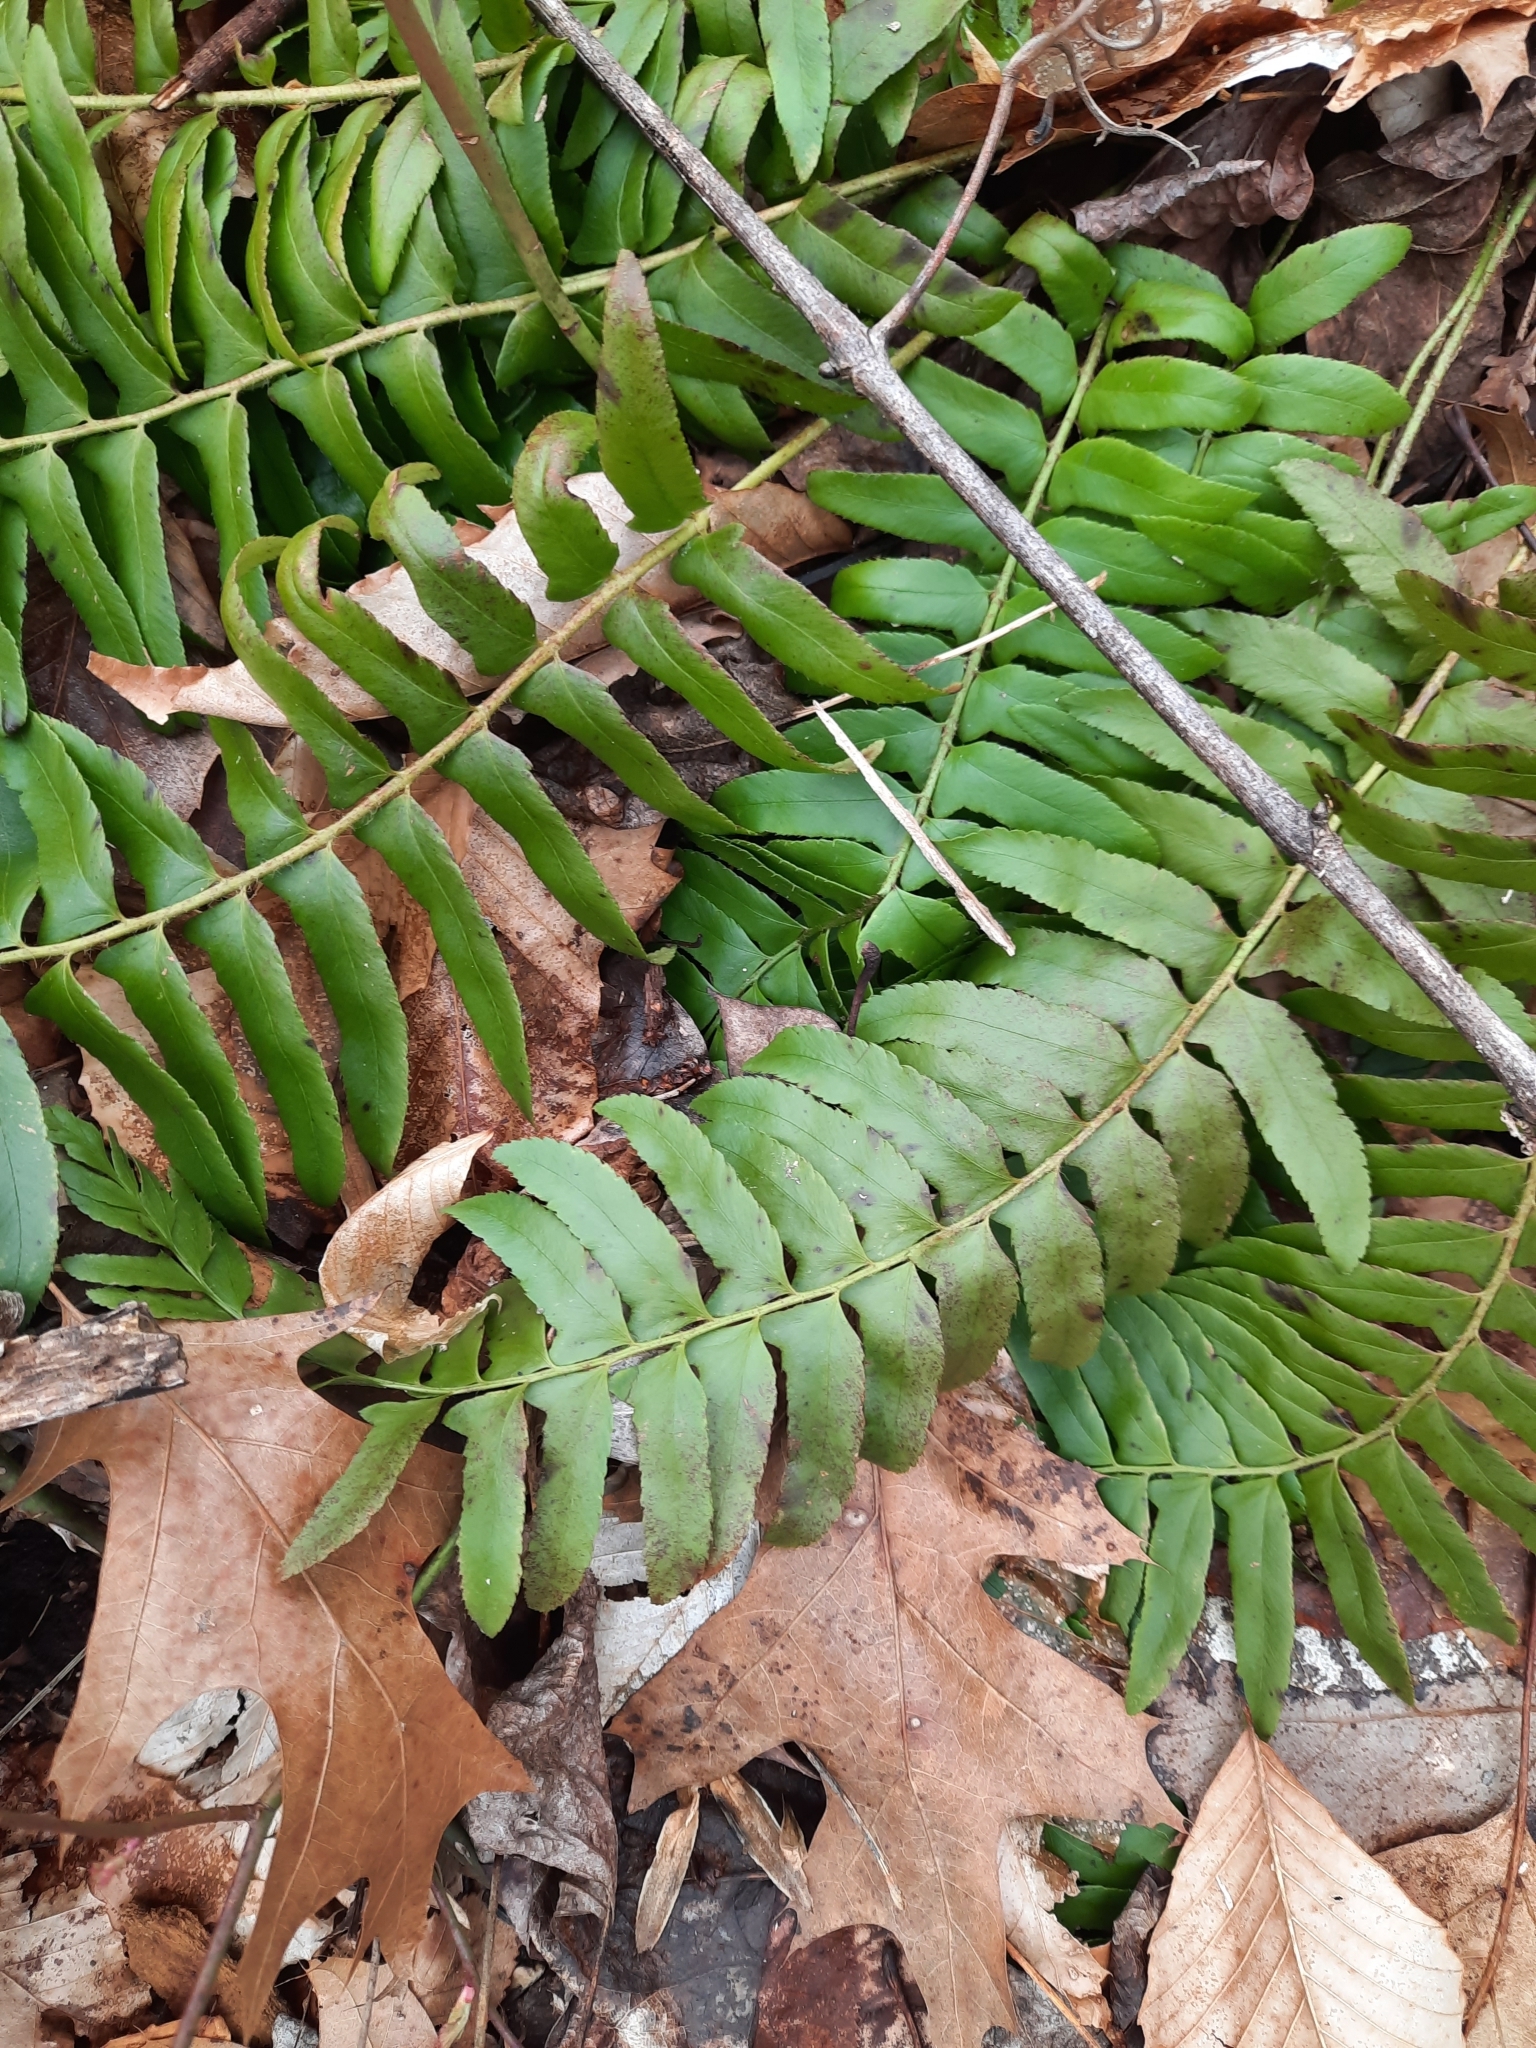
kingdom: Plantae
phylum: Tracheophyta
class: Polypodiopsida
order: Polypodiales
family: Dryopteridaceae
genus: Polystichum
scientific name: Polystichum acrostichoides
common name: Christmas fern
